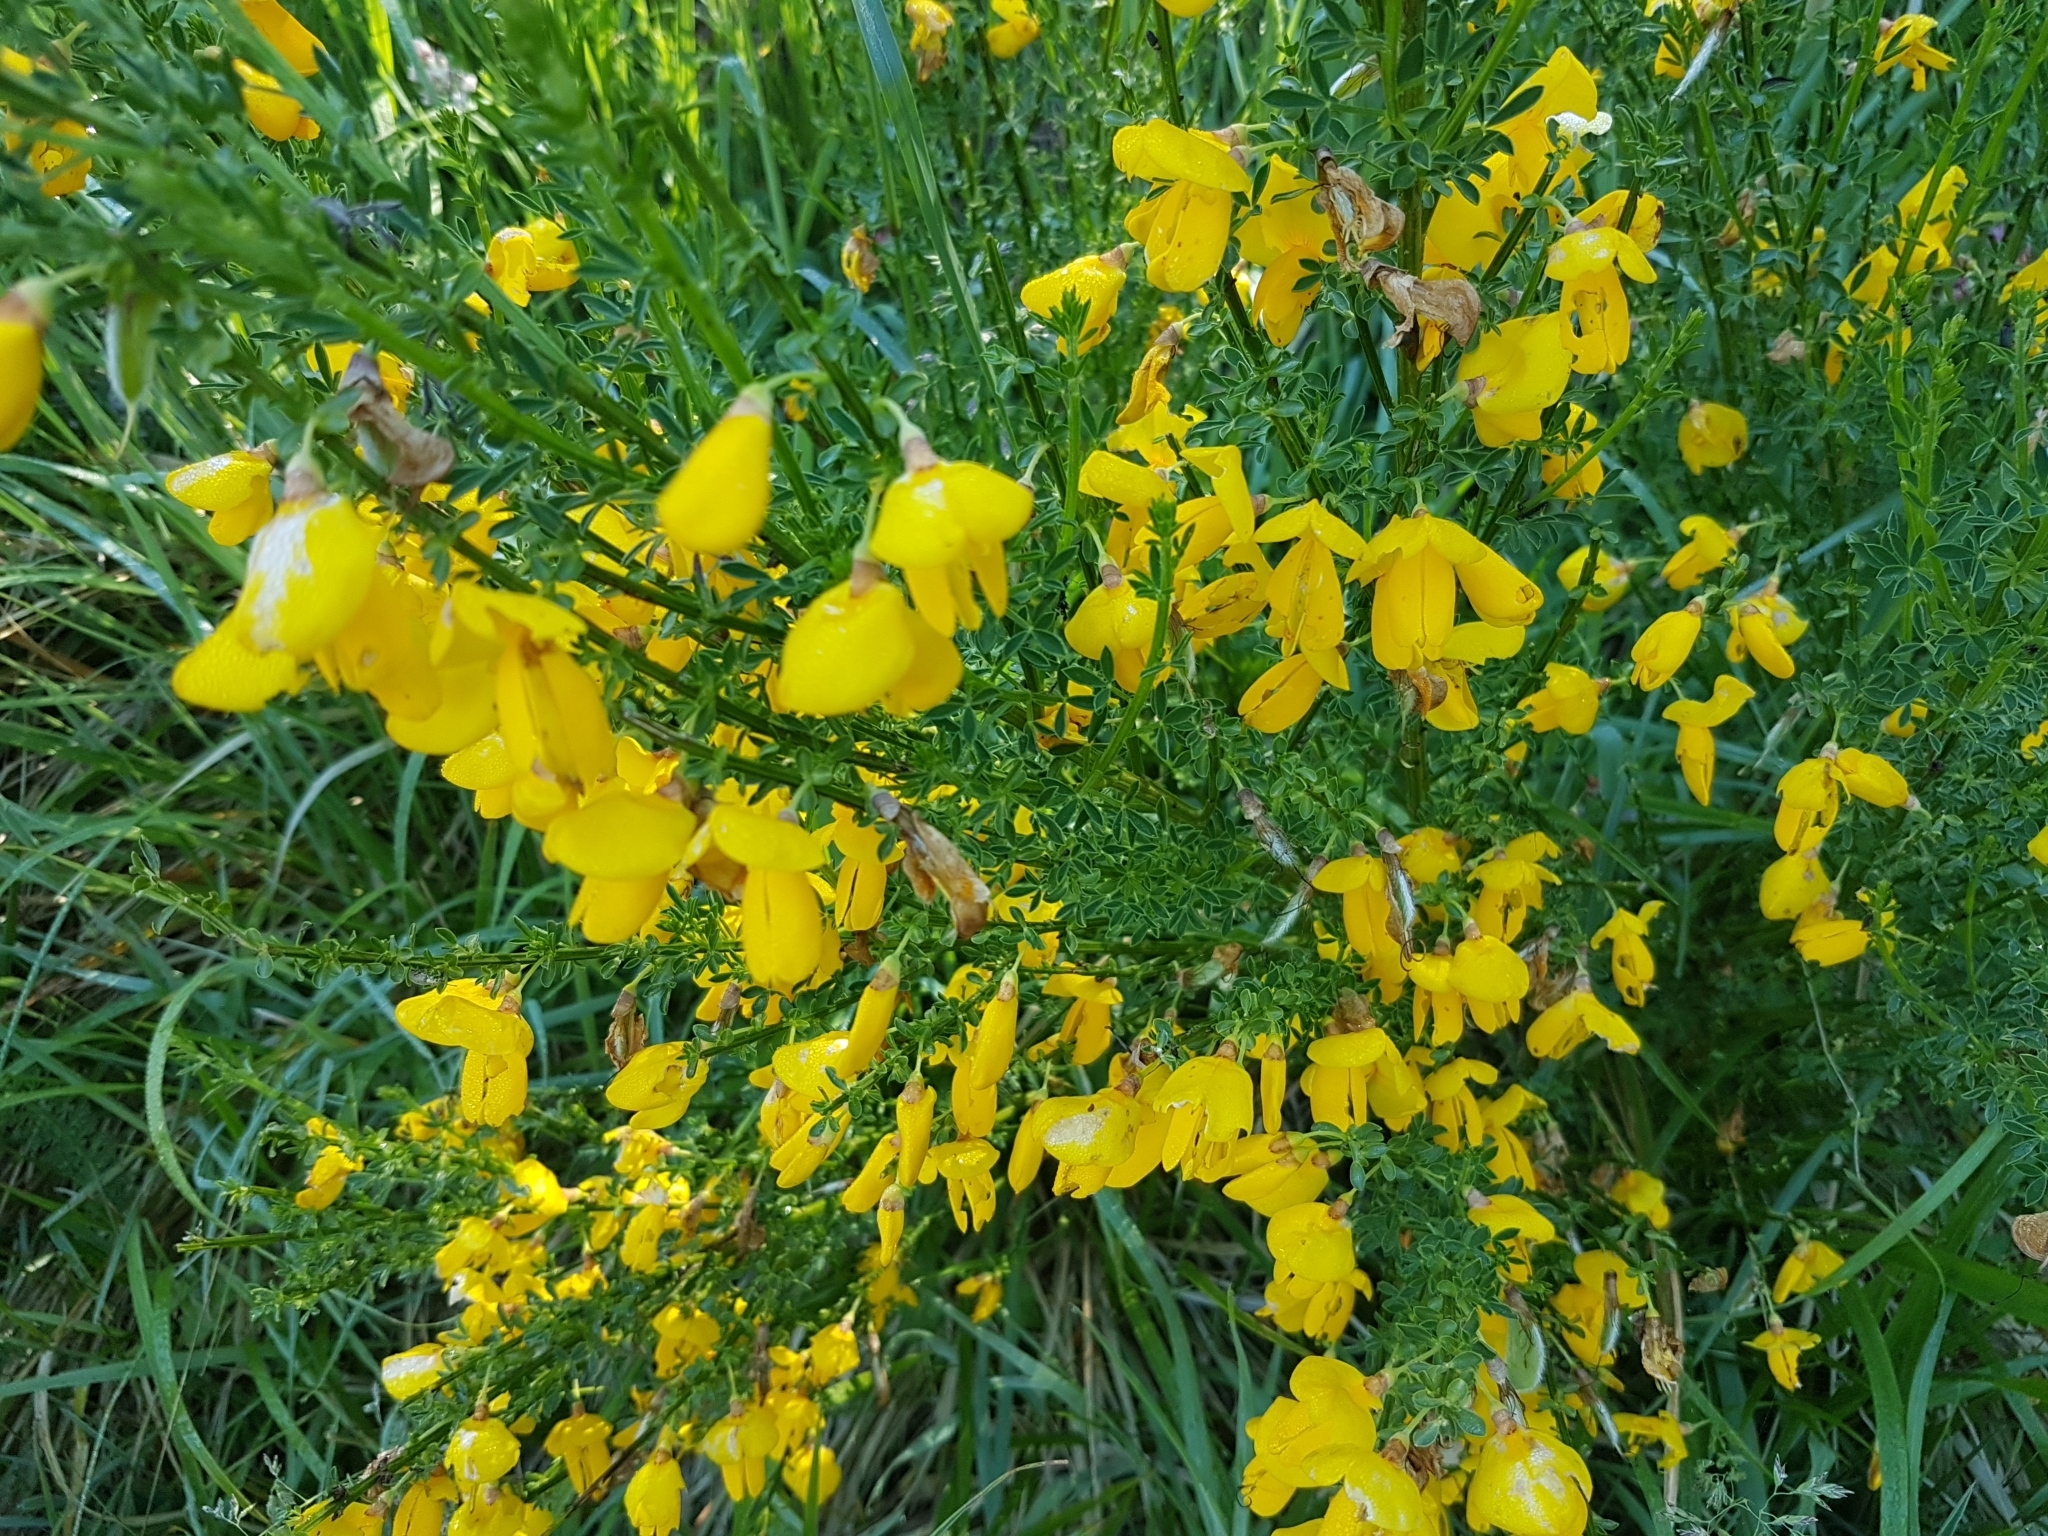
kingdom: Plantae
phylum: Tracheophyta
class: Magnoliopsida
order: Fabales
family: Fabaceae
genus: Cytisus
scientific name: Cytisus scoparius
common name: Scotch broom
